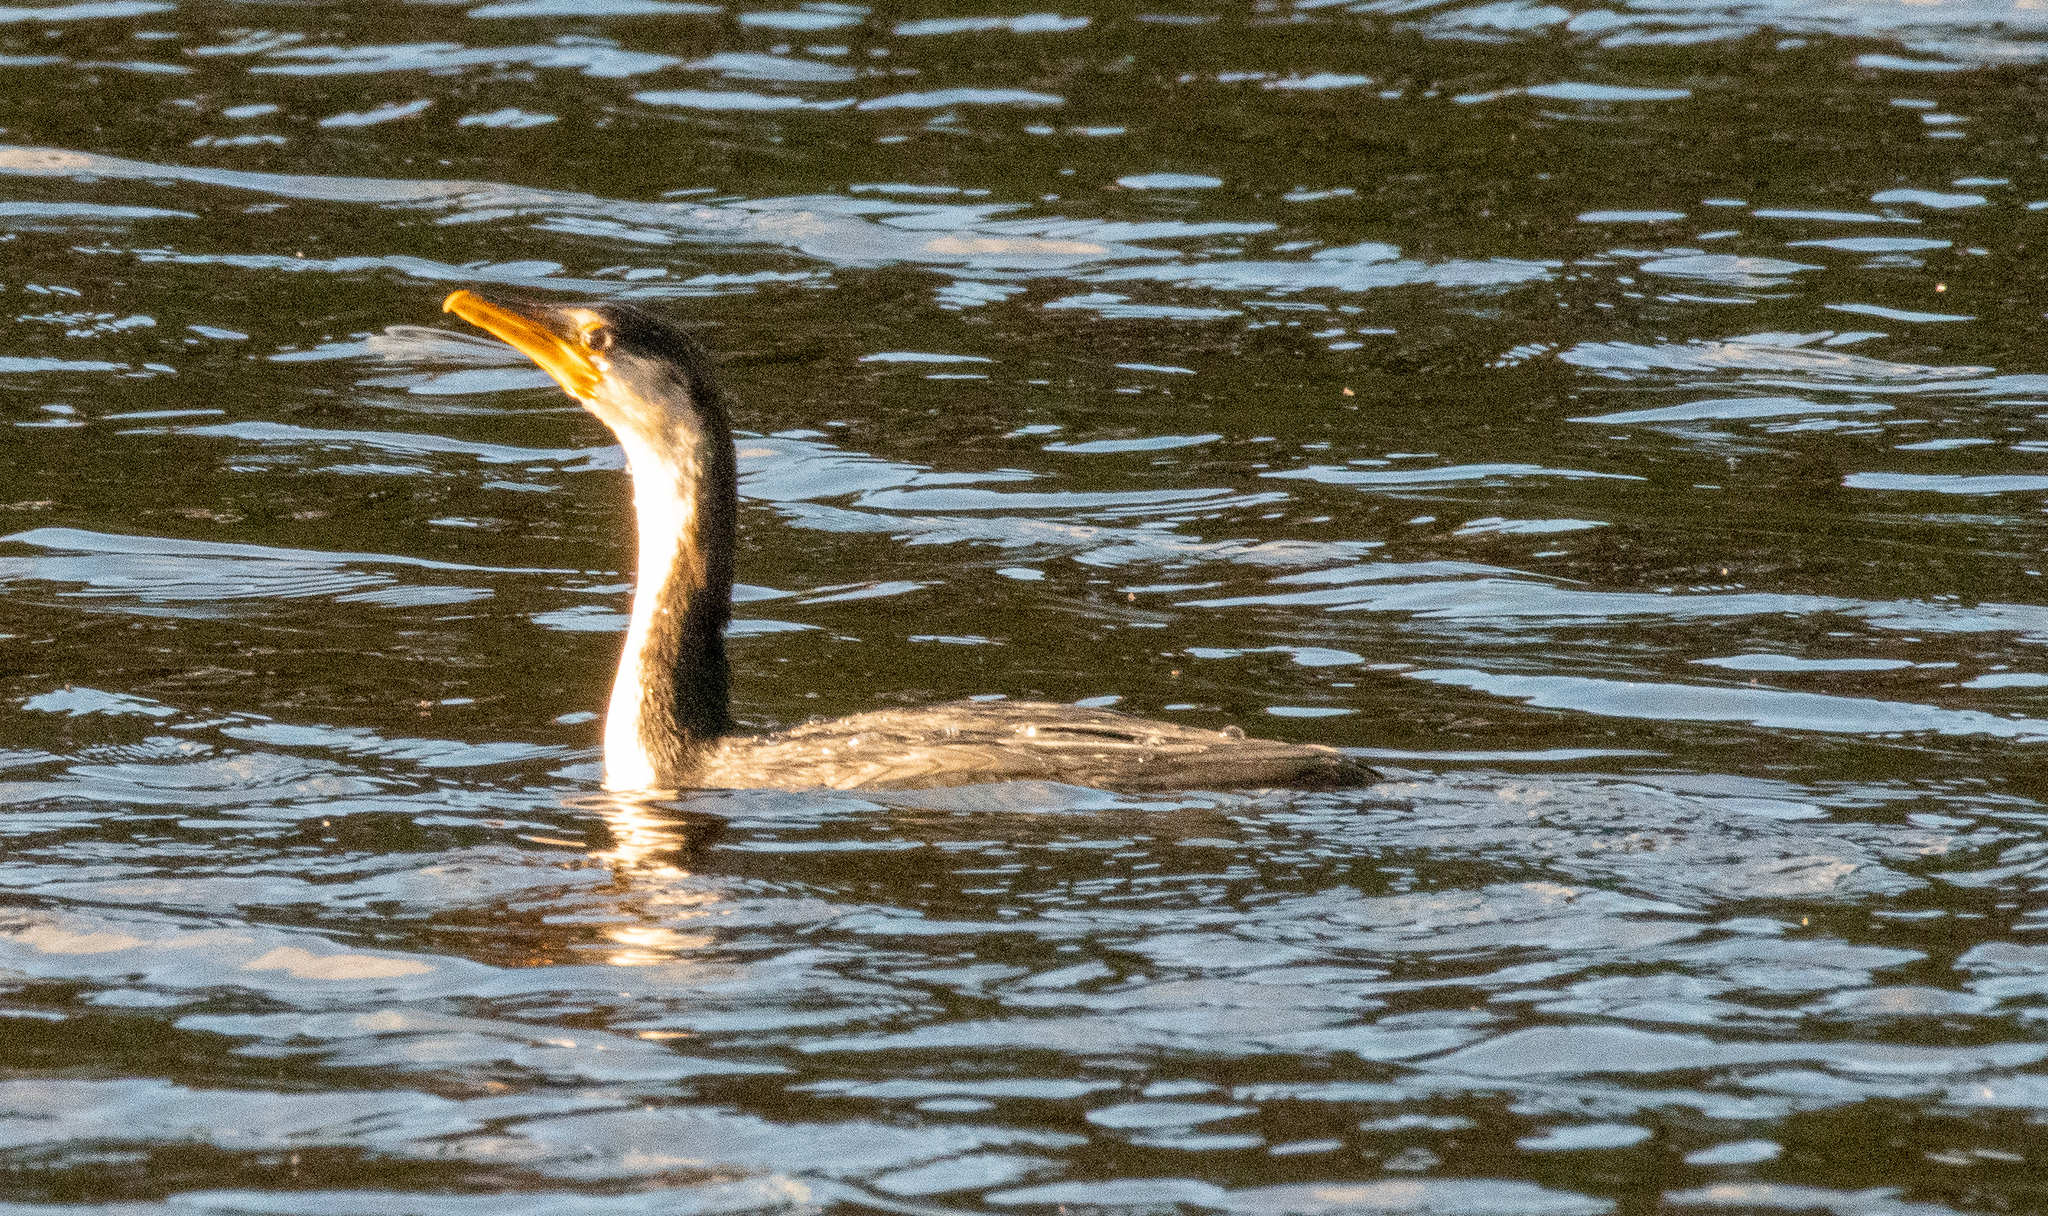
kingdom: Animalia
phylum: Chordata
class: Aves
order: Suliformes
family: Phalacrocoracidae
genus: Microcarbo
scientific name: Microcarbo melanoleucos
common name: Little pied cormorant
